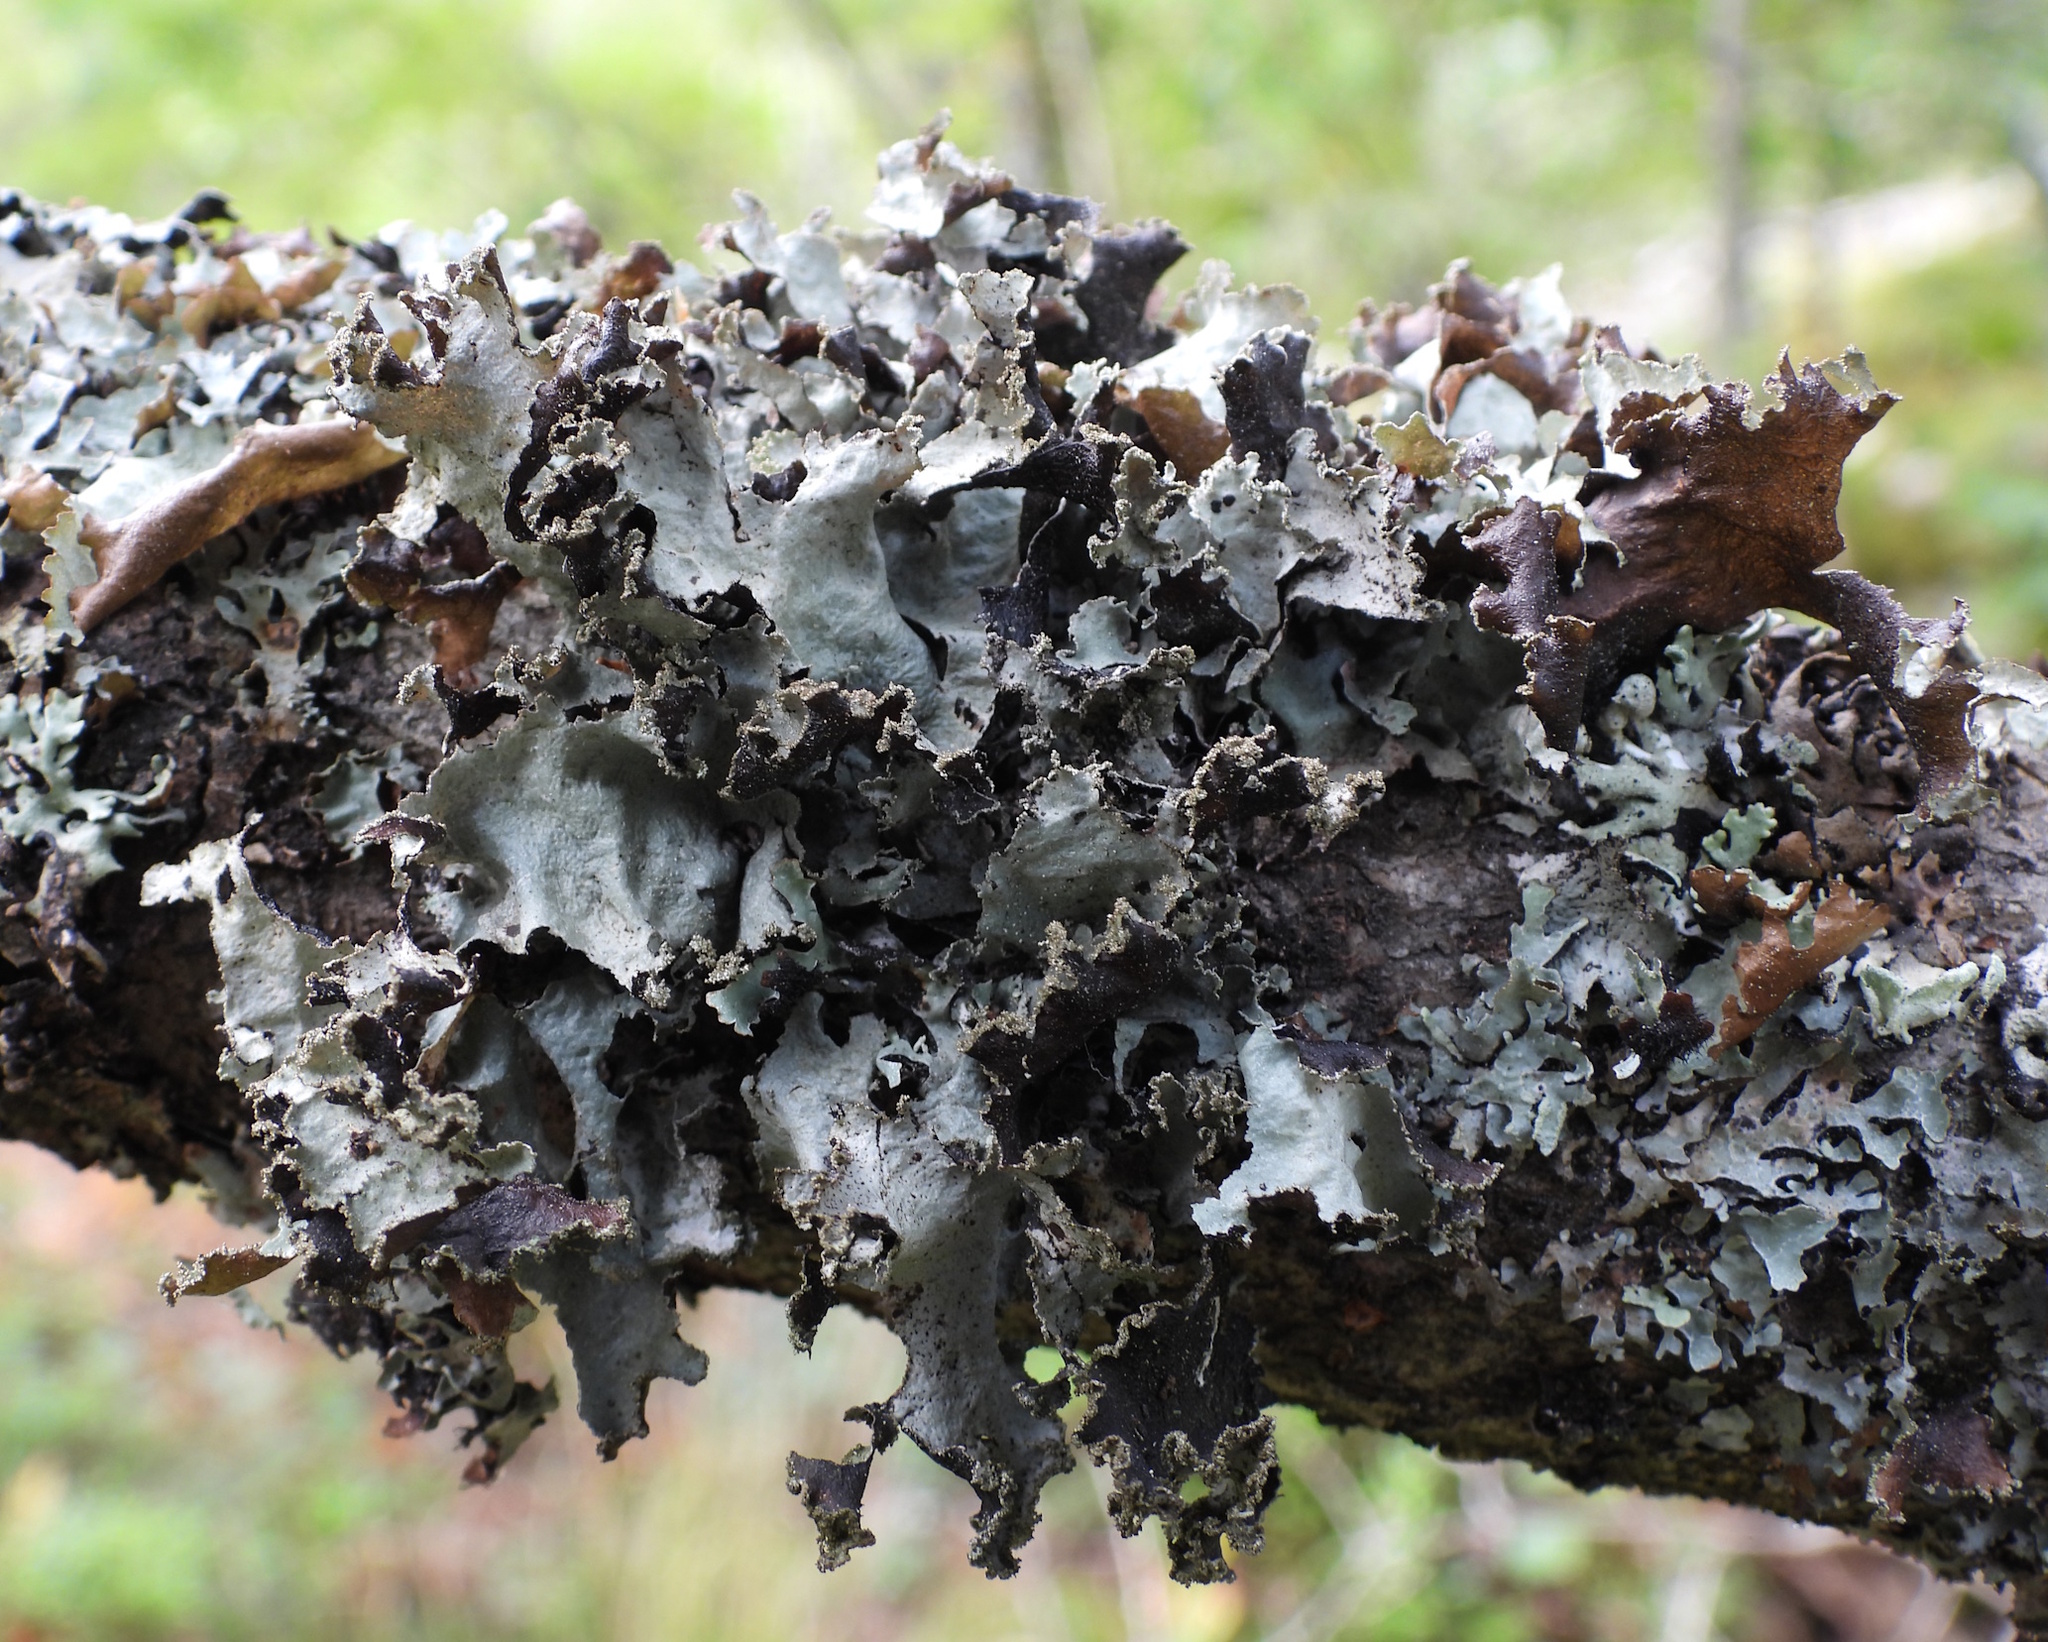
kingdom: Fungi
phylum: Ascomycota
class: Lecanoromycetes
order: Lecanorales
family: Parmeliaceae
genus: Platismatia
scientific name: Platismatia glauca
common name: Varied rag lichen
